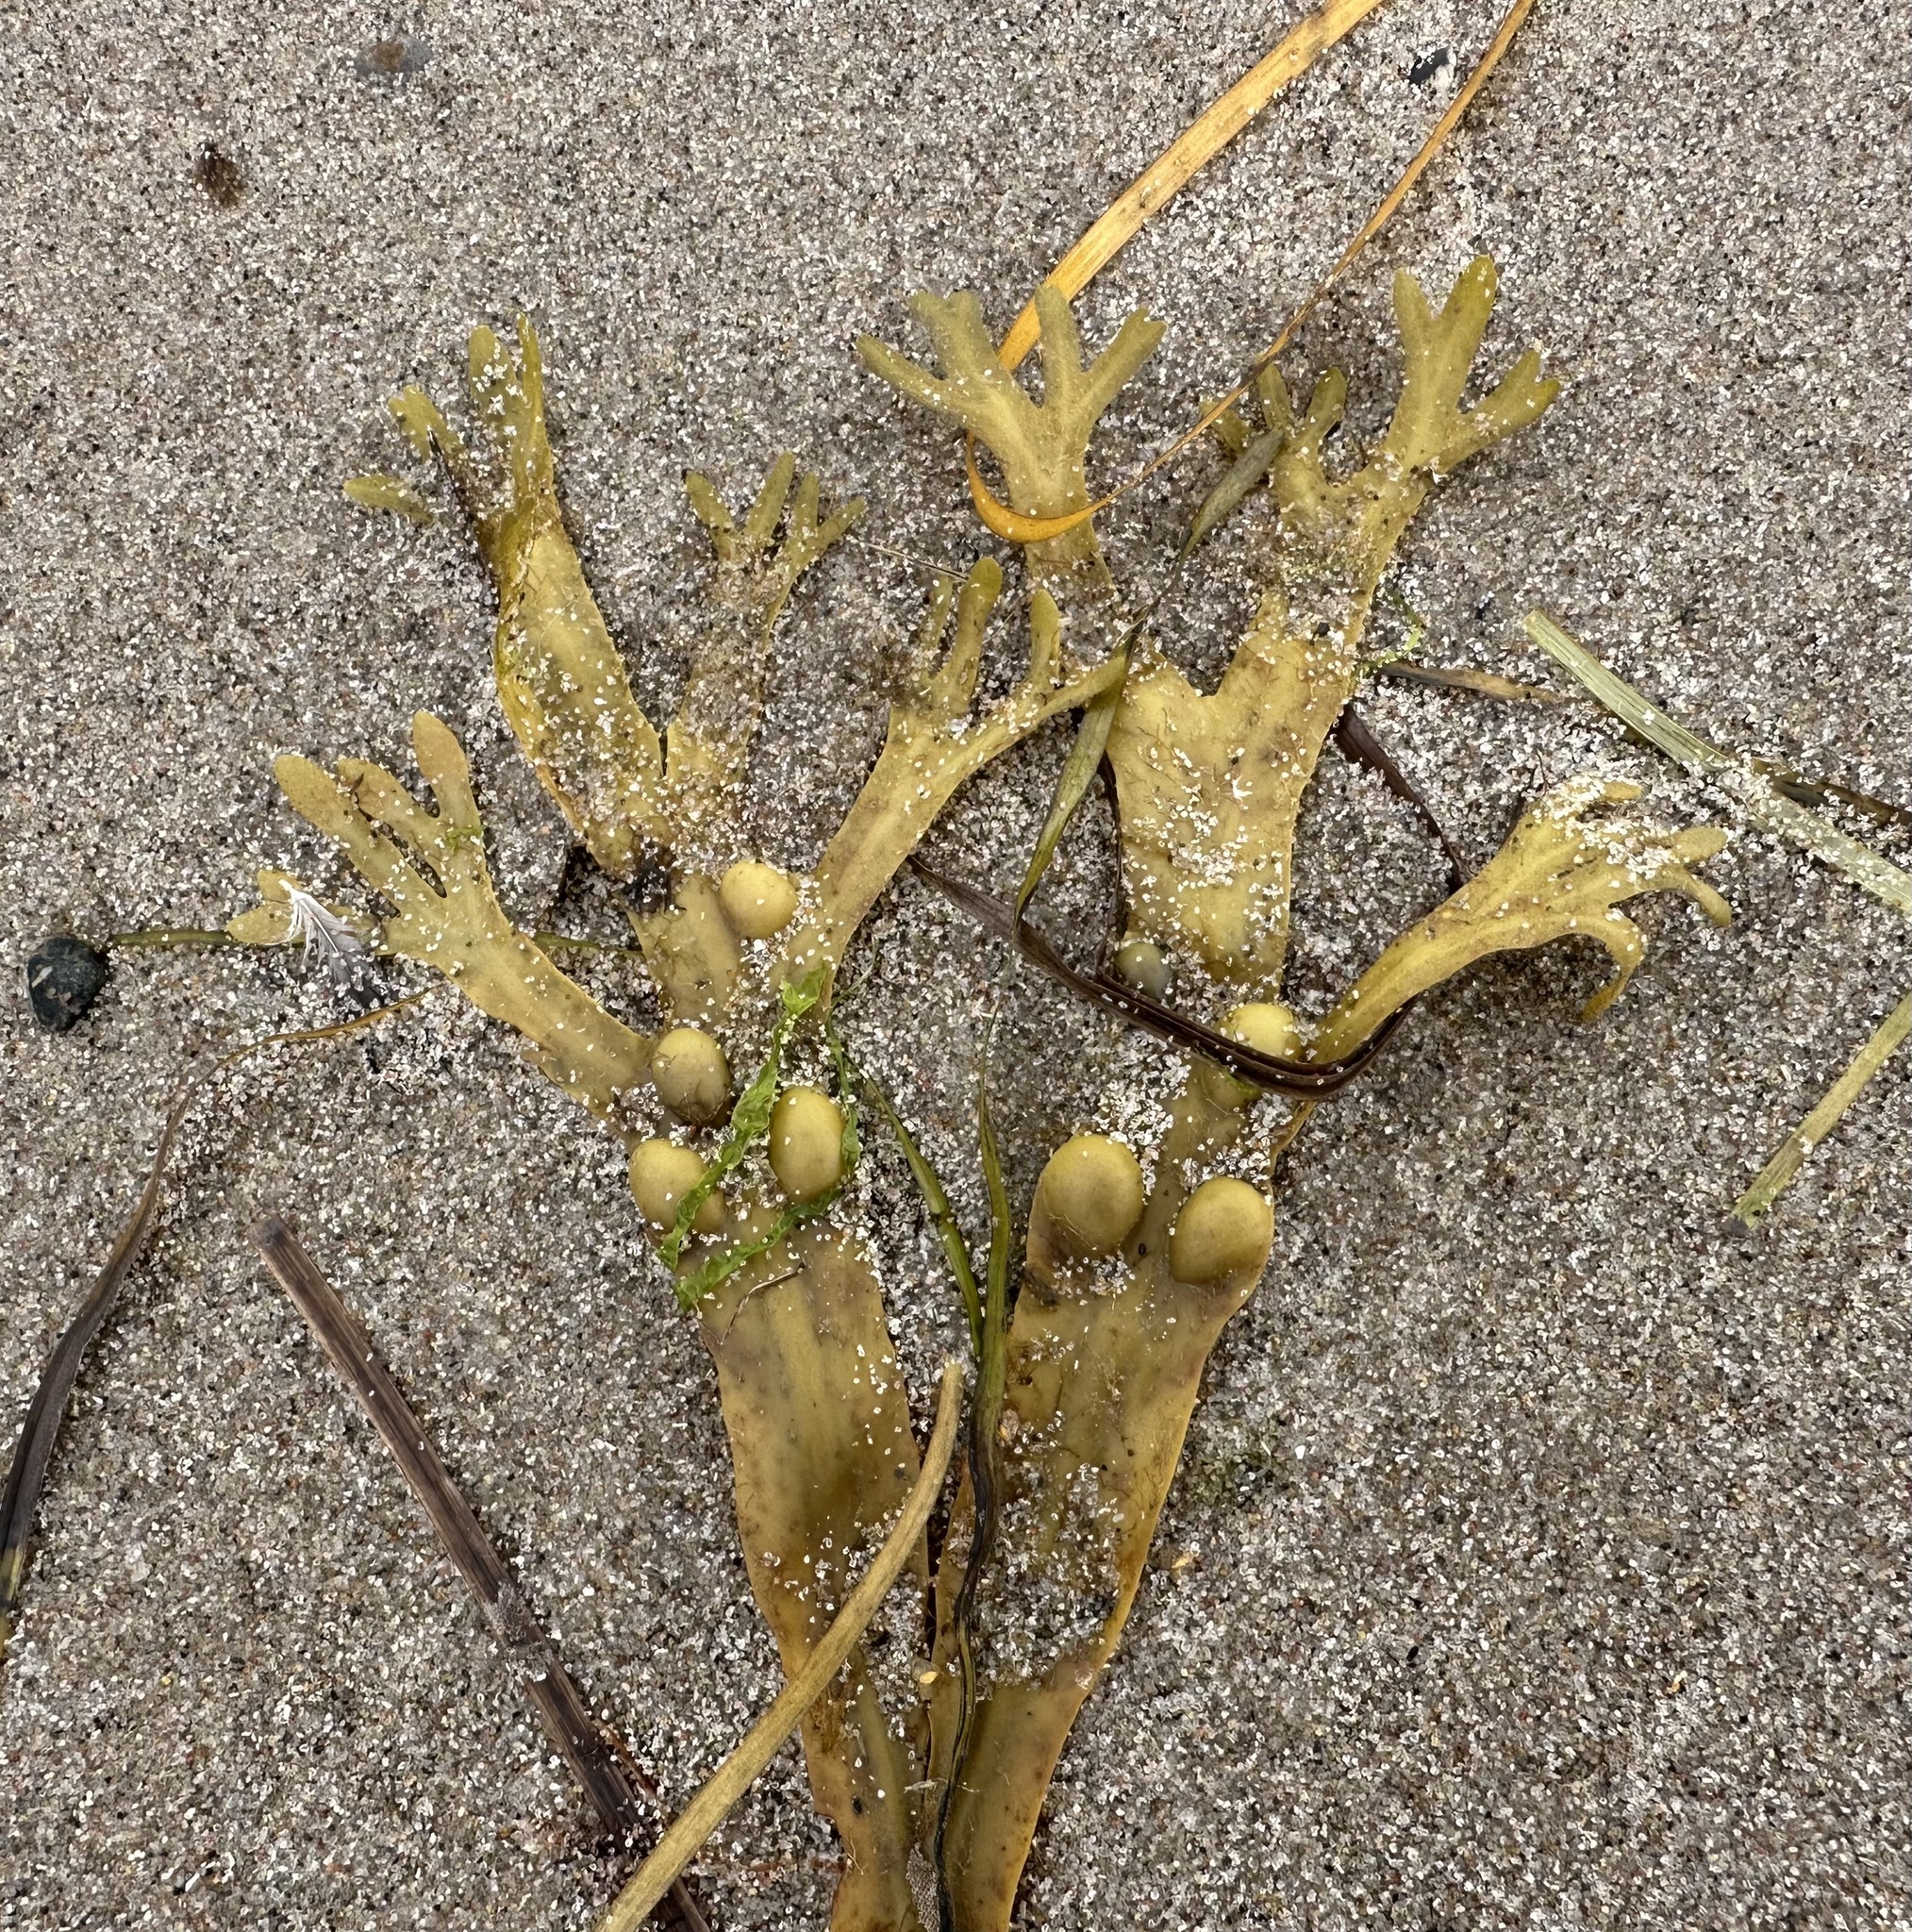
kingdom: Chromista
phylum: Ochrophyta
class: Phaeophyceae
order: Fucales
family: Fucaceae
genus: Fucus
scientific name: Fucus vesiculosus
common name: Bladder wrack
